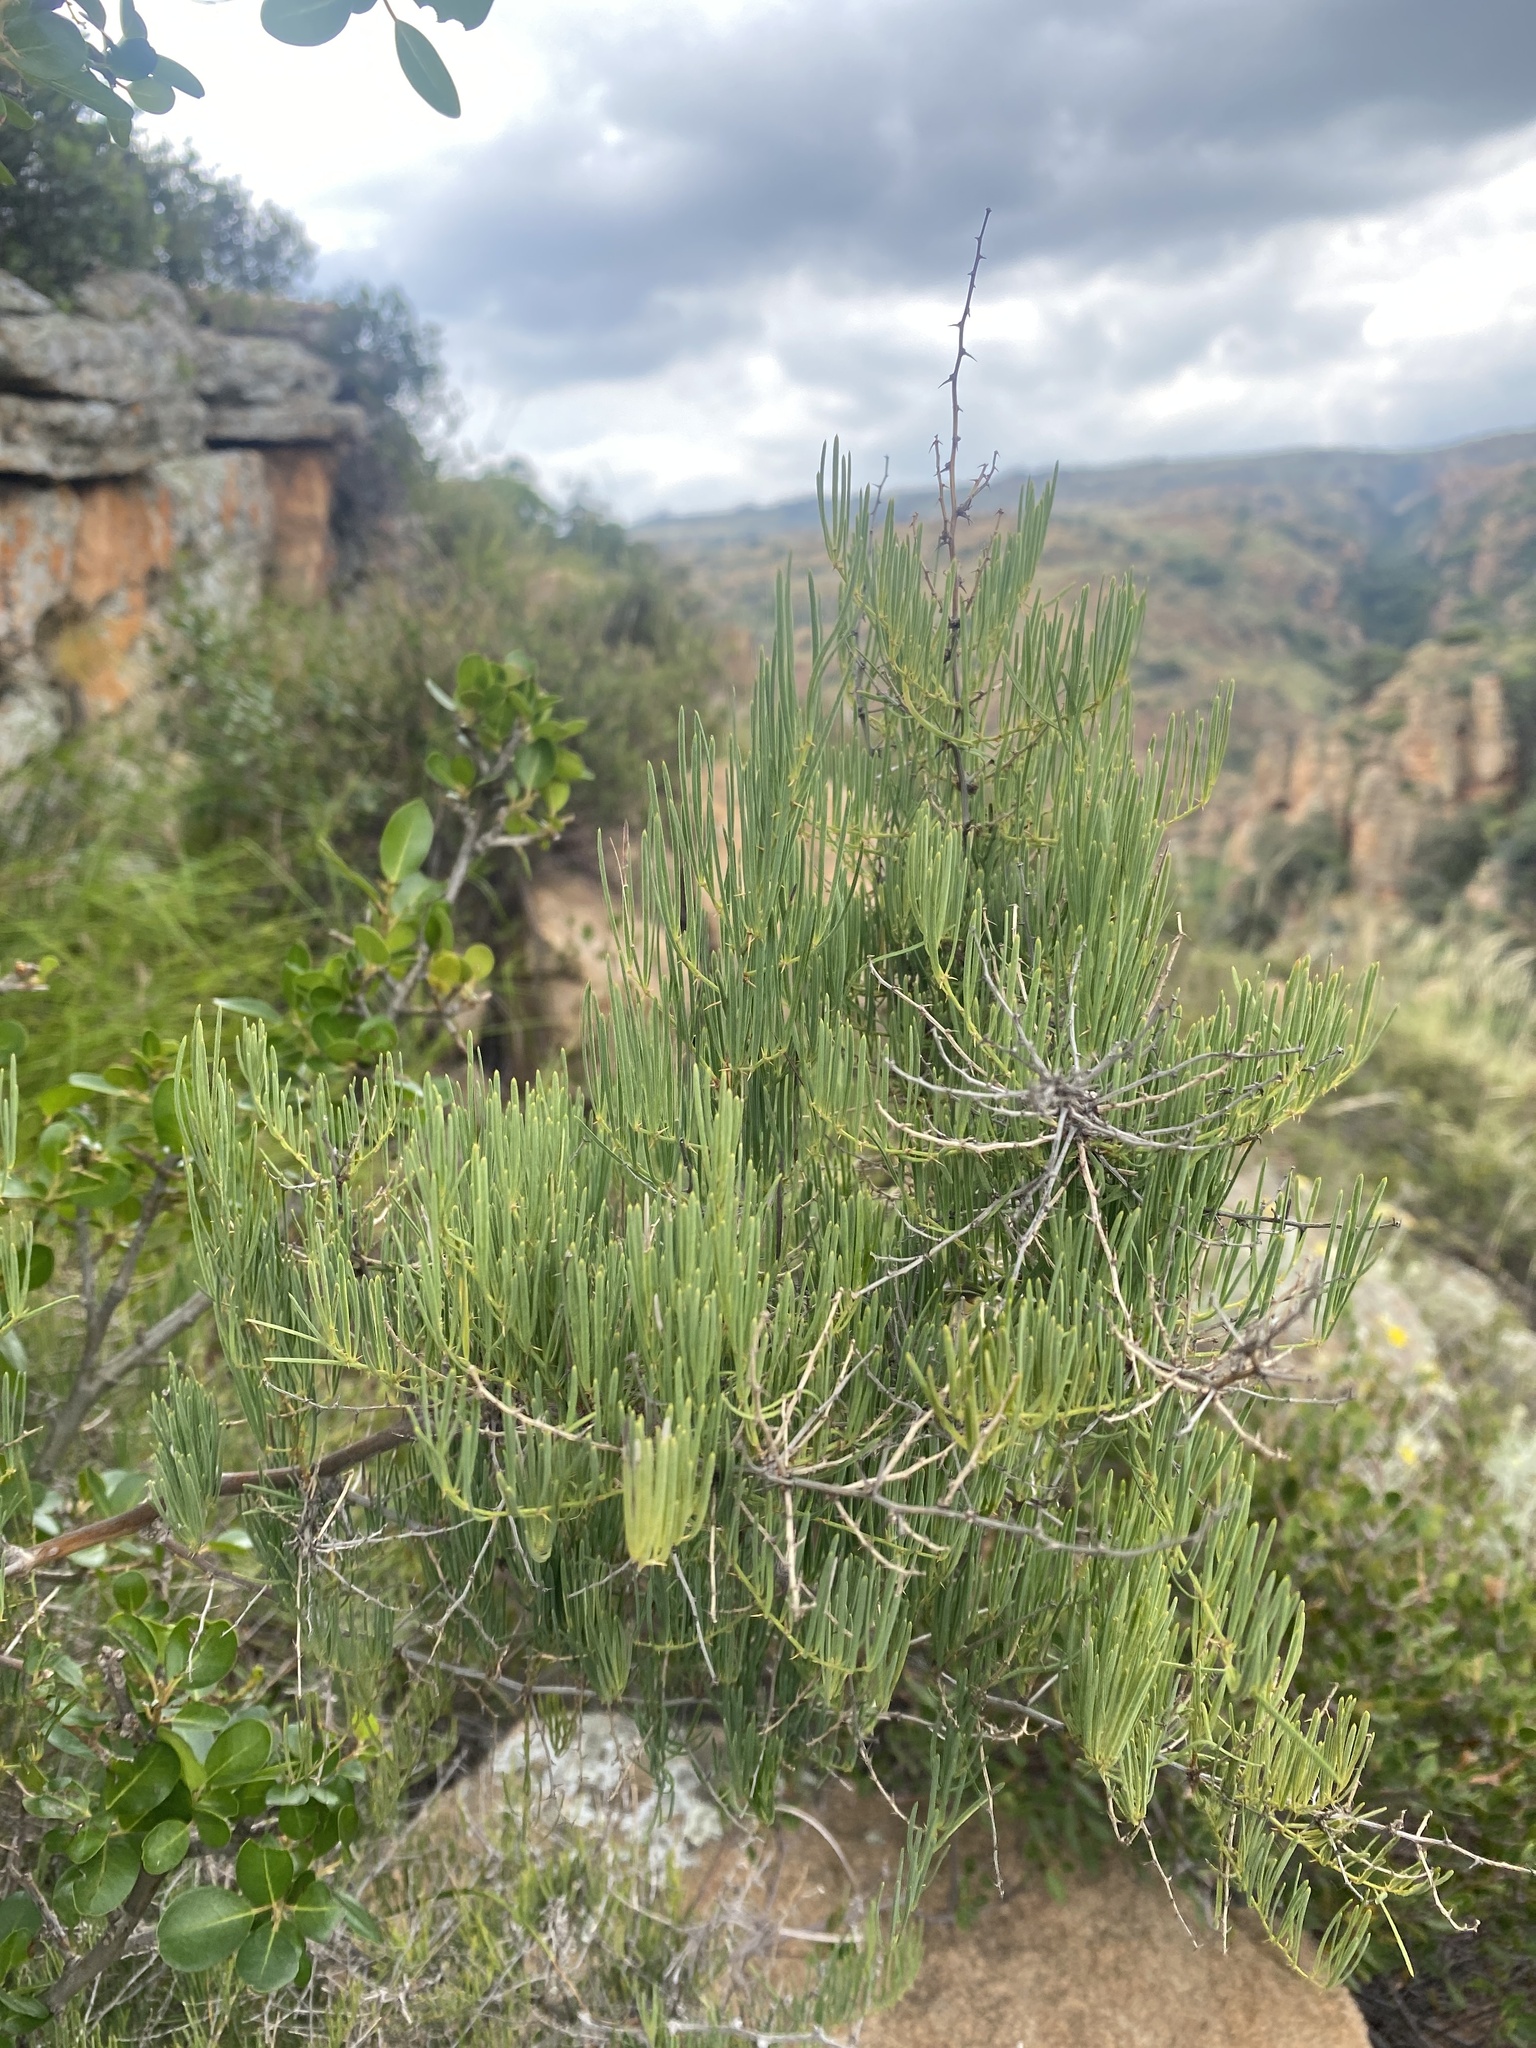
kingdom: Plantae
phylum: Tracheophyta
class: Liliopsida
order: Asparagales
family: Asparagaceae
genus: Asparagus
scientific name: Asparagus transvaalensis
